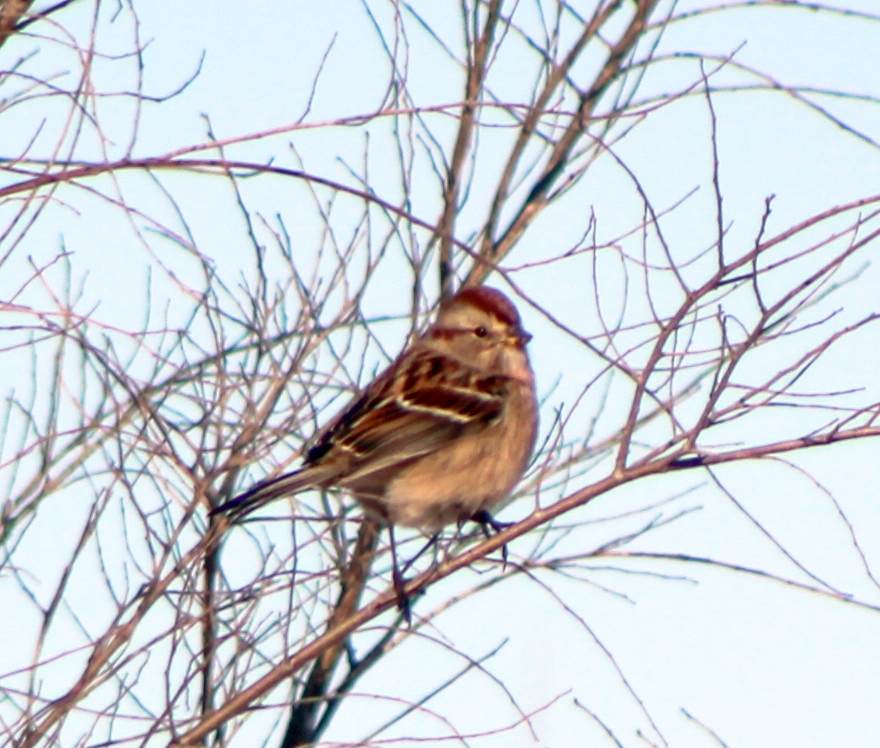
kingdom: Animalia
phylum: Chordata
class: Aves
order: Passeriformes
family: Passerellidae
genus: Spizelloides
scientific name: Spizelloides arborea
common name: American tree sparrow
